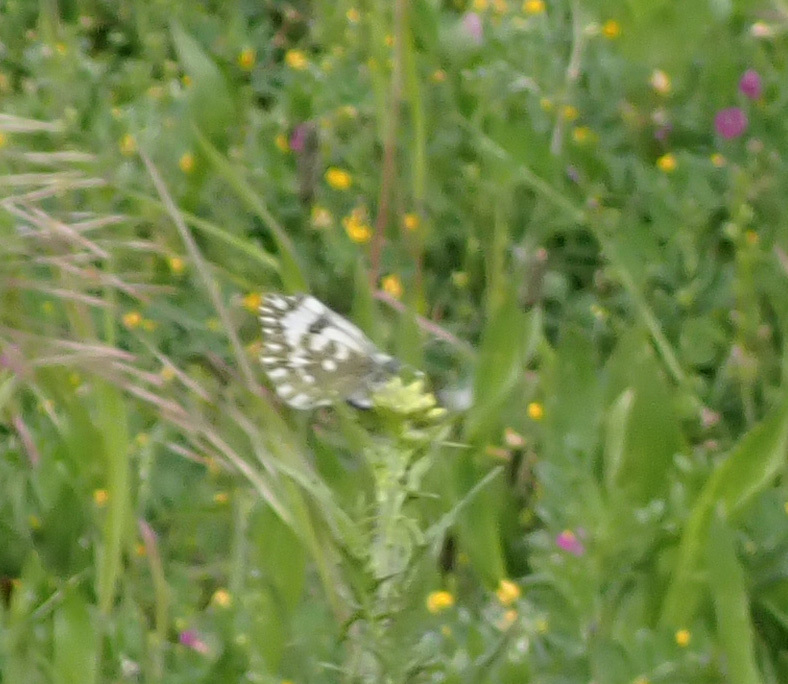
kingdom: Animalia
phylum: Arthropoda
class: Insecta
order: Lepidoptera
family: Pieridae
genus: Pontia
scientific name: Pontia edusa
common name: Eastern bath white
